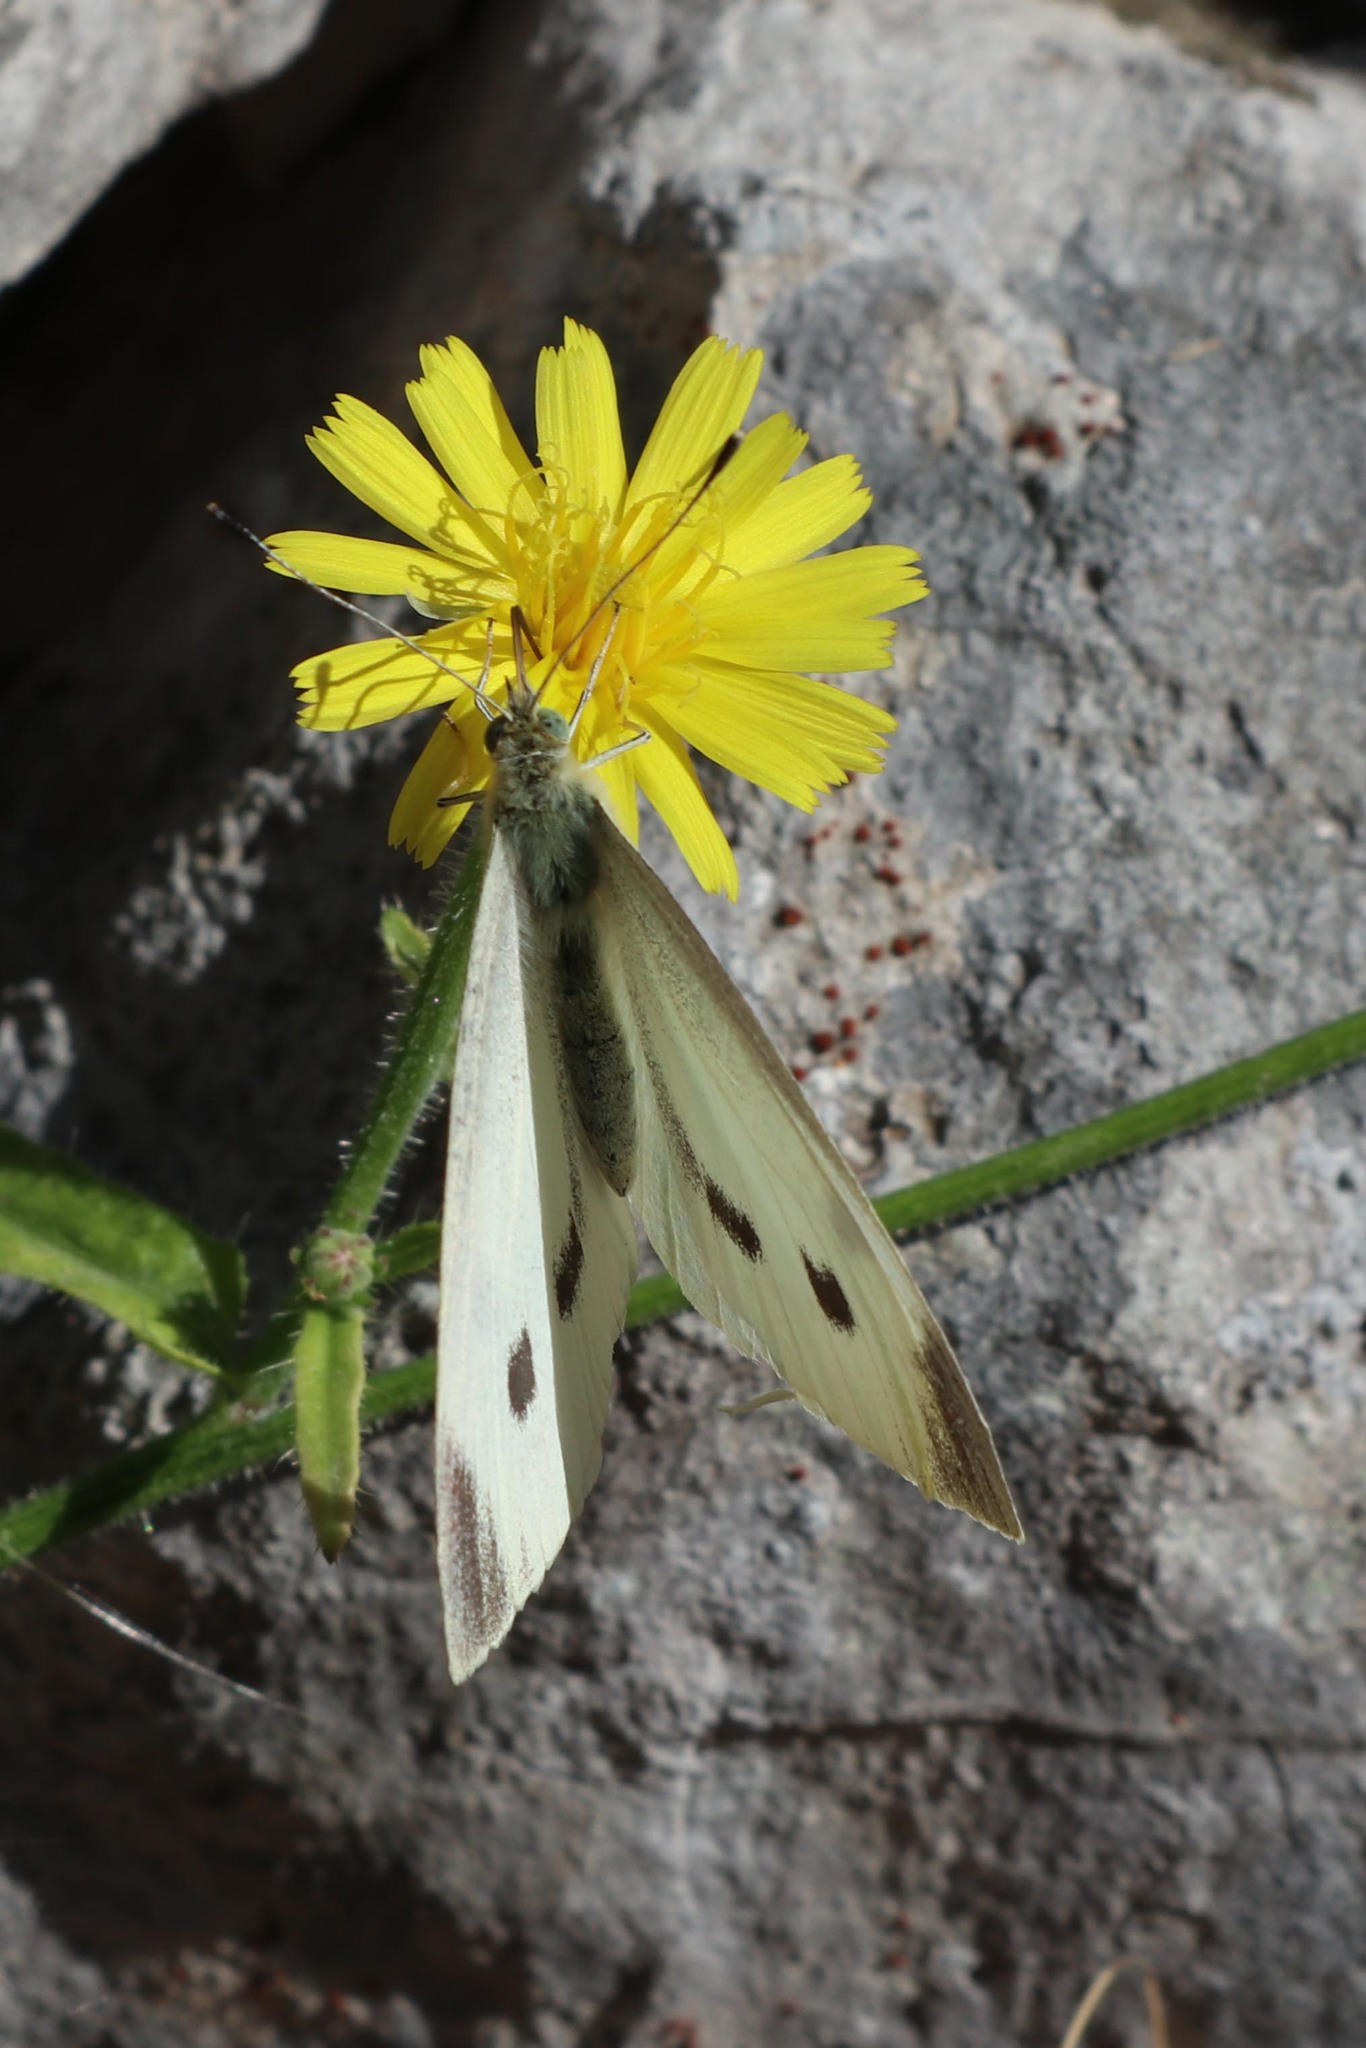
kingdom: Animalia
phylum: Arthropoda
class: Insecta
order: Lepidoptera
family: Pieridae
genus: Pieris
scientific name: Pieris rapae
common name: Small white
